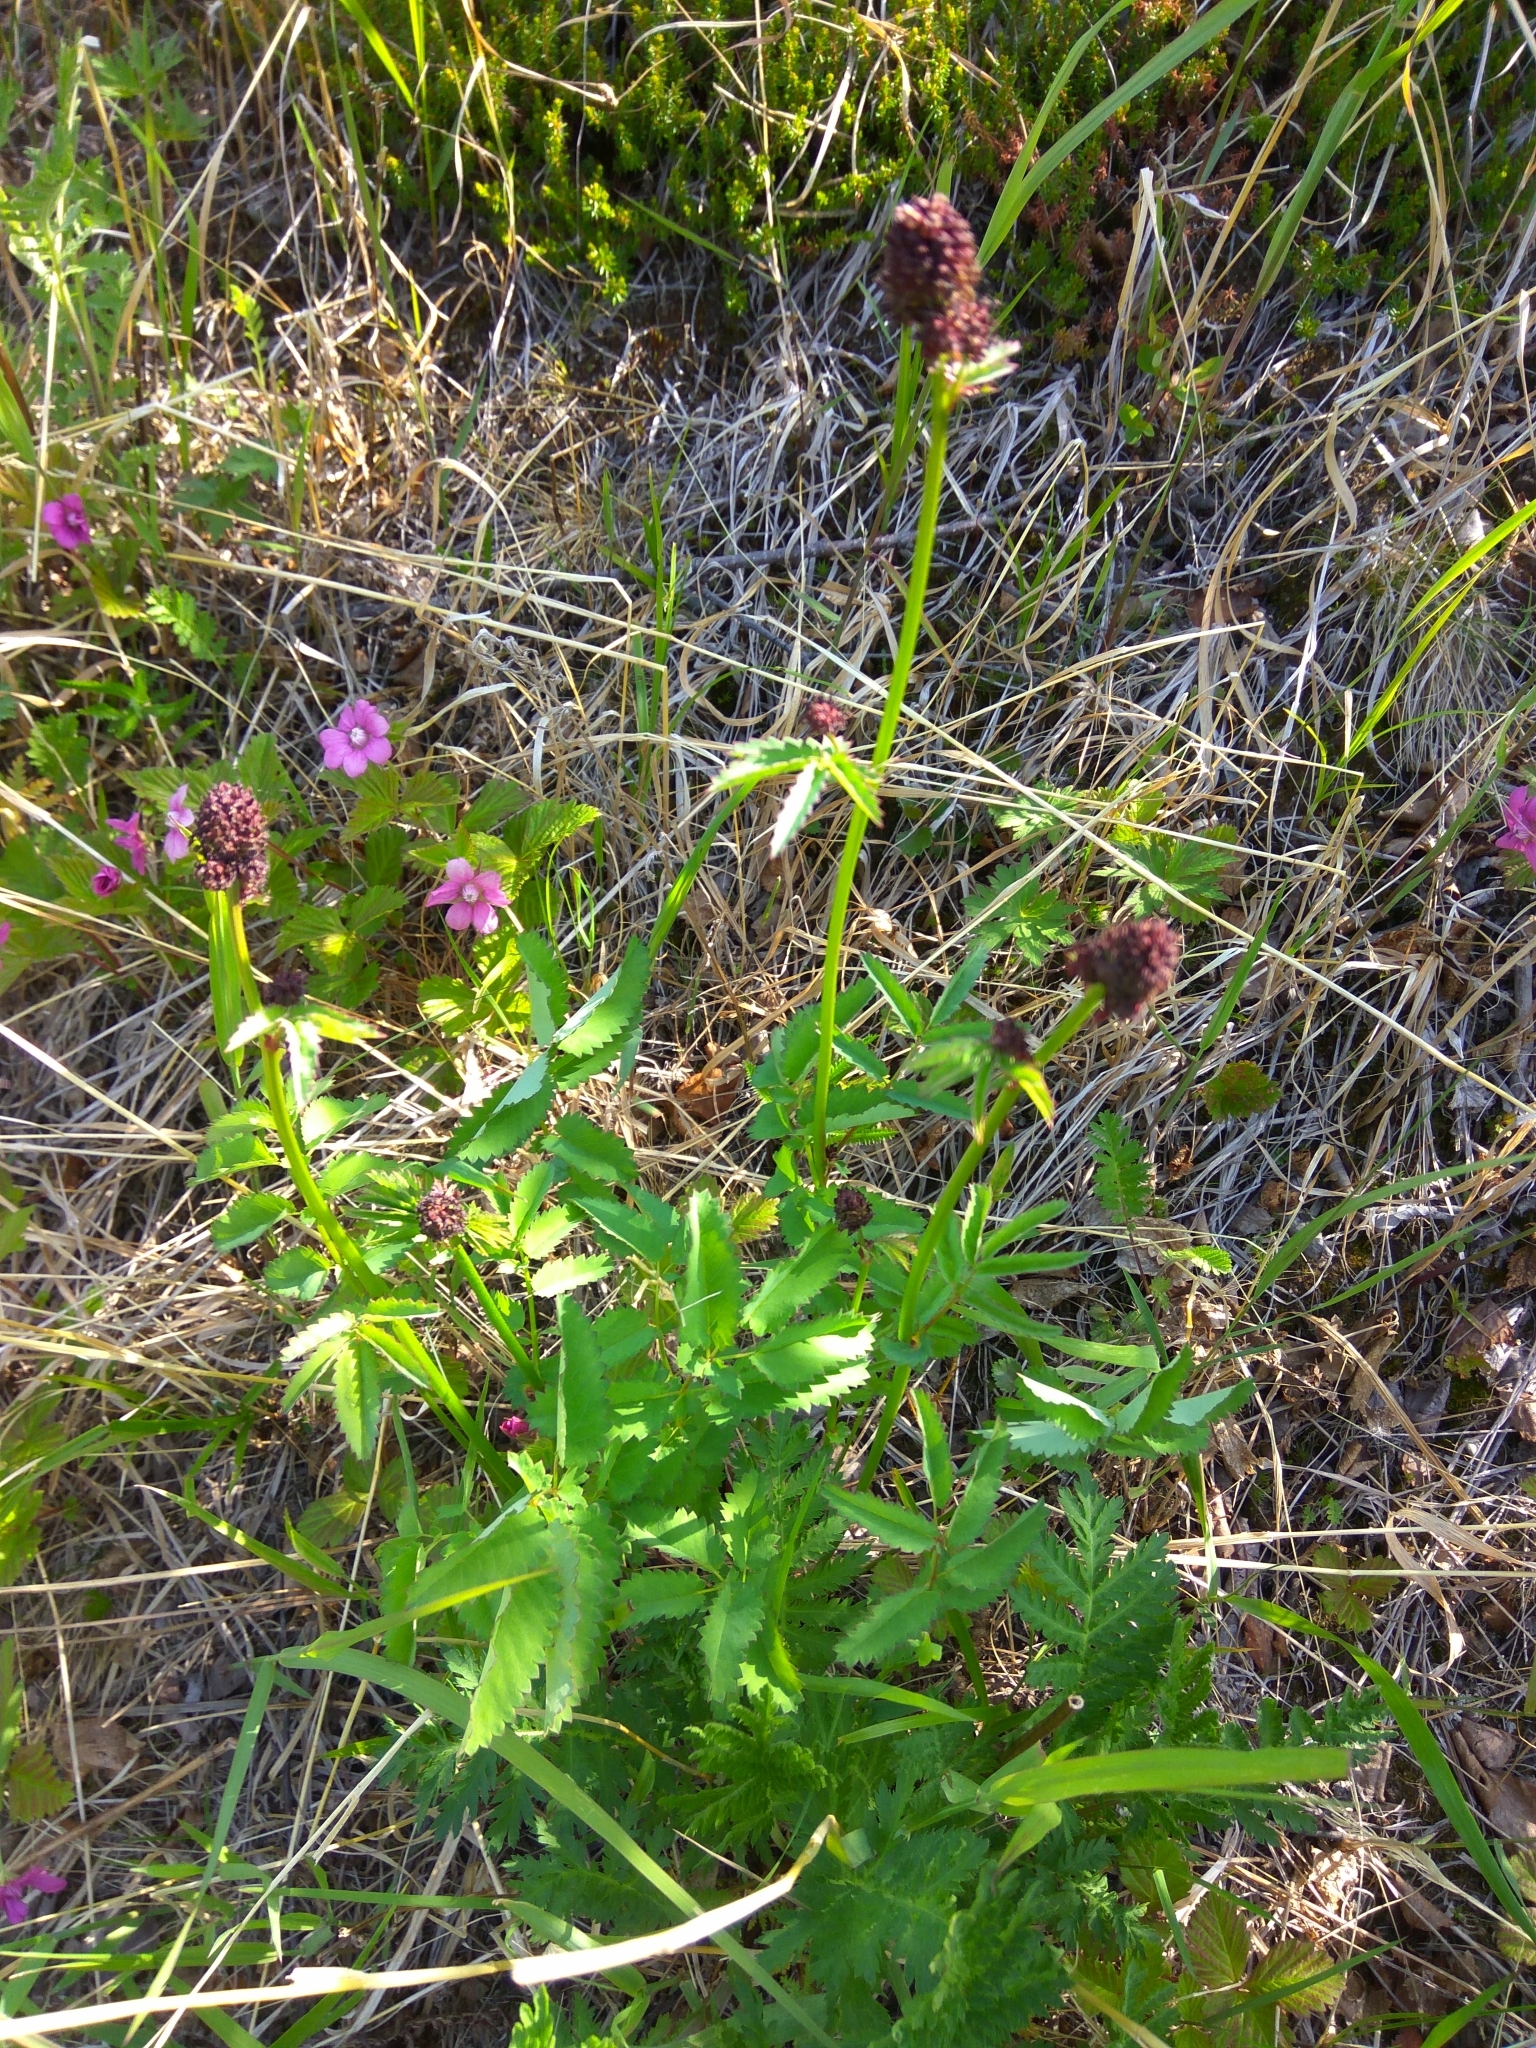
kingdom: Plantae
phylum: Tracheophyta
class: Magnoliopsida
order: Rosales
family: Rosaceae
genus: Sanguisorba
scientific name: Sanguisorba officinalis
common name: Great burnet
